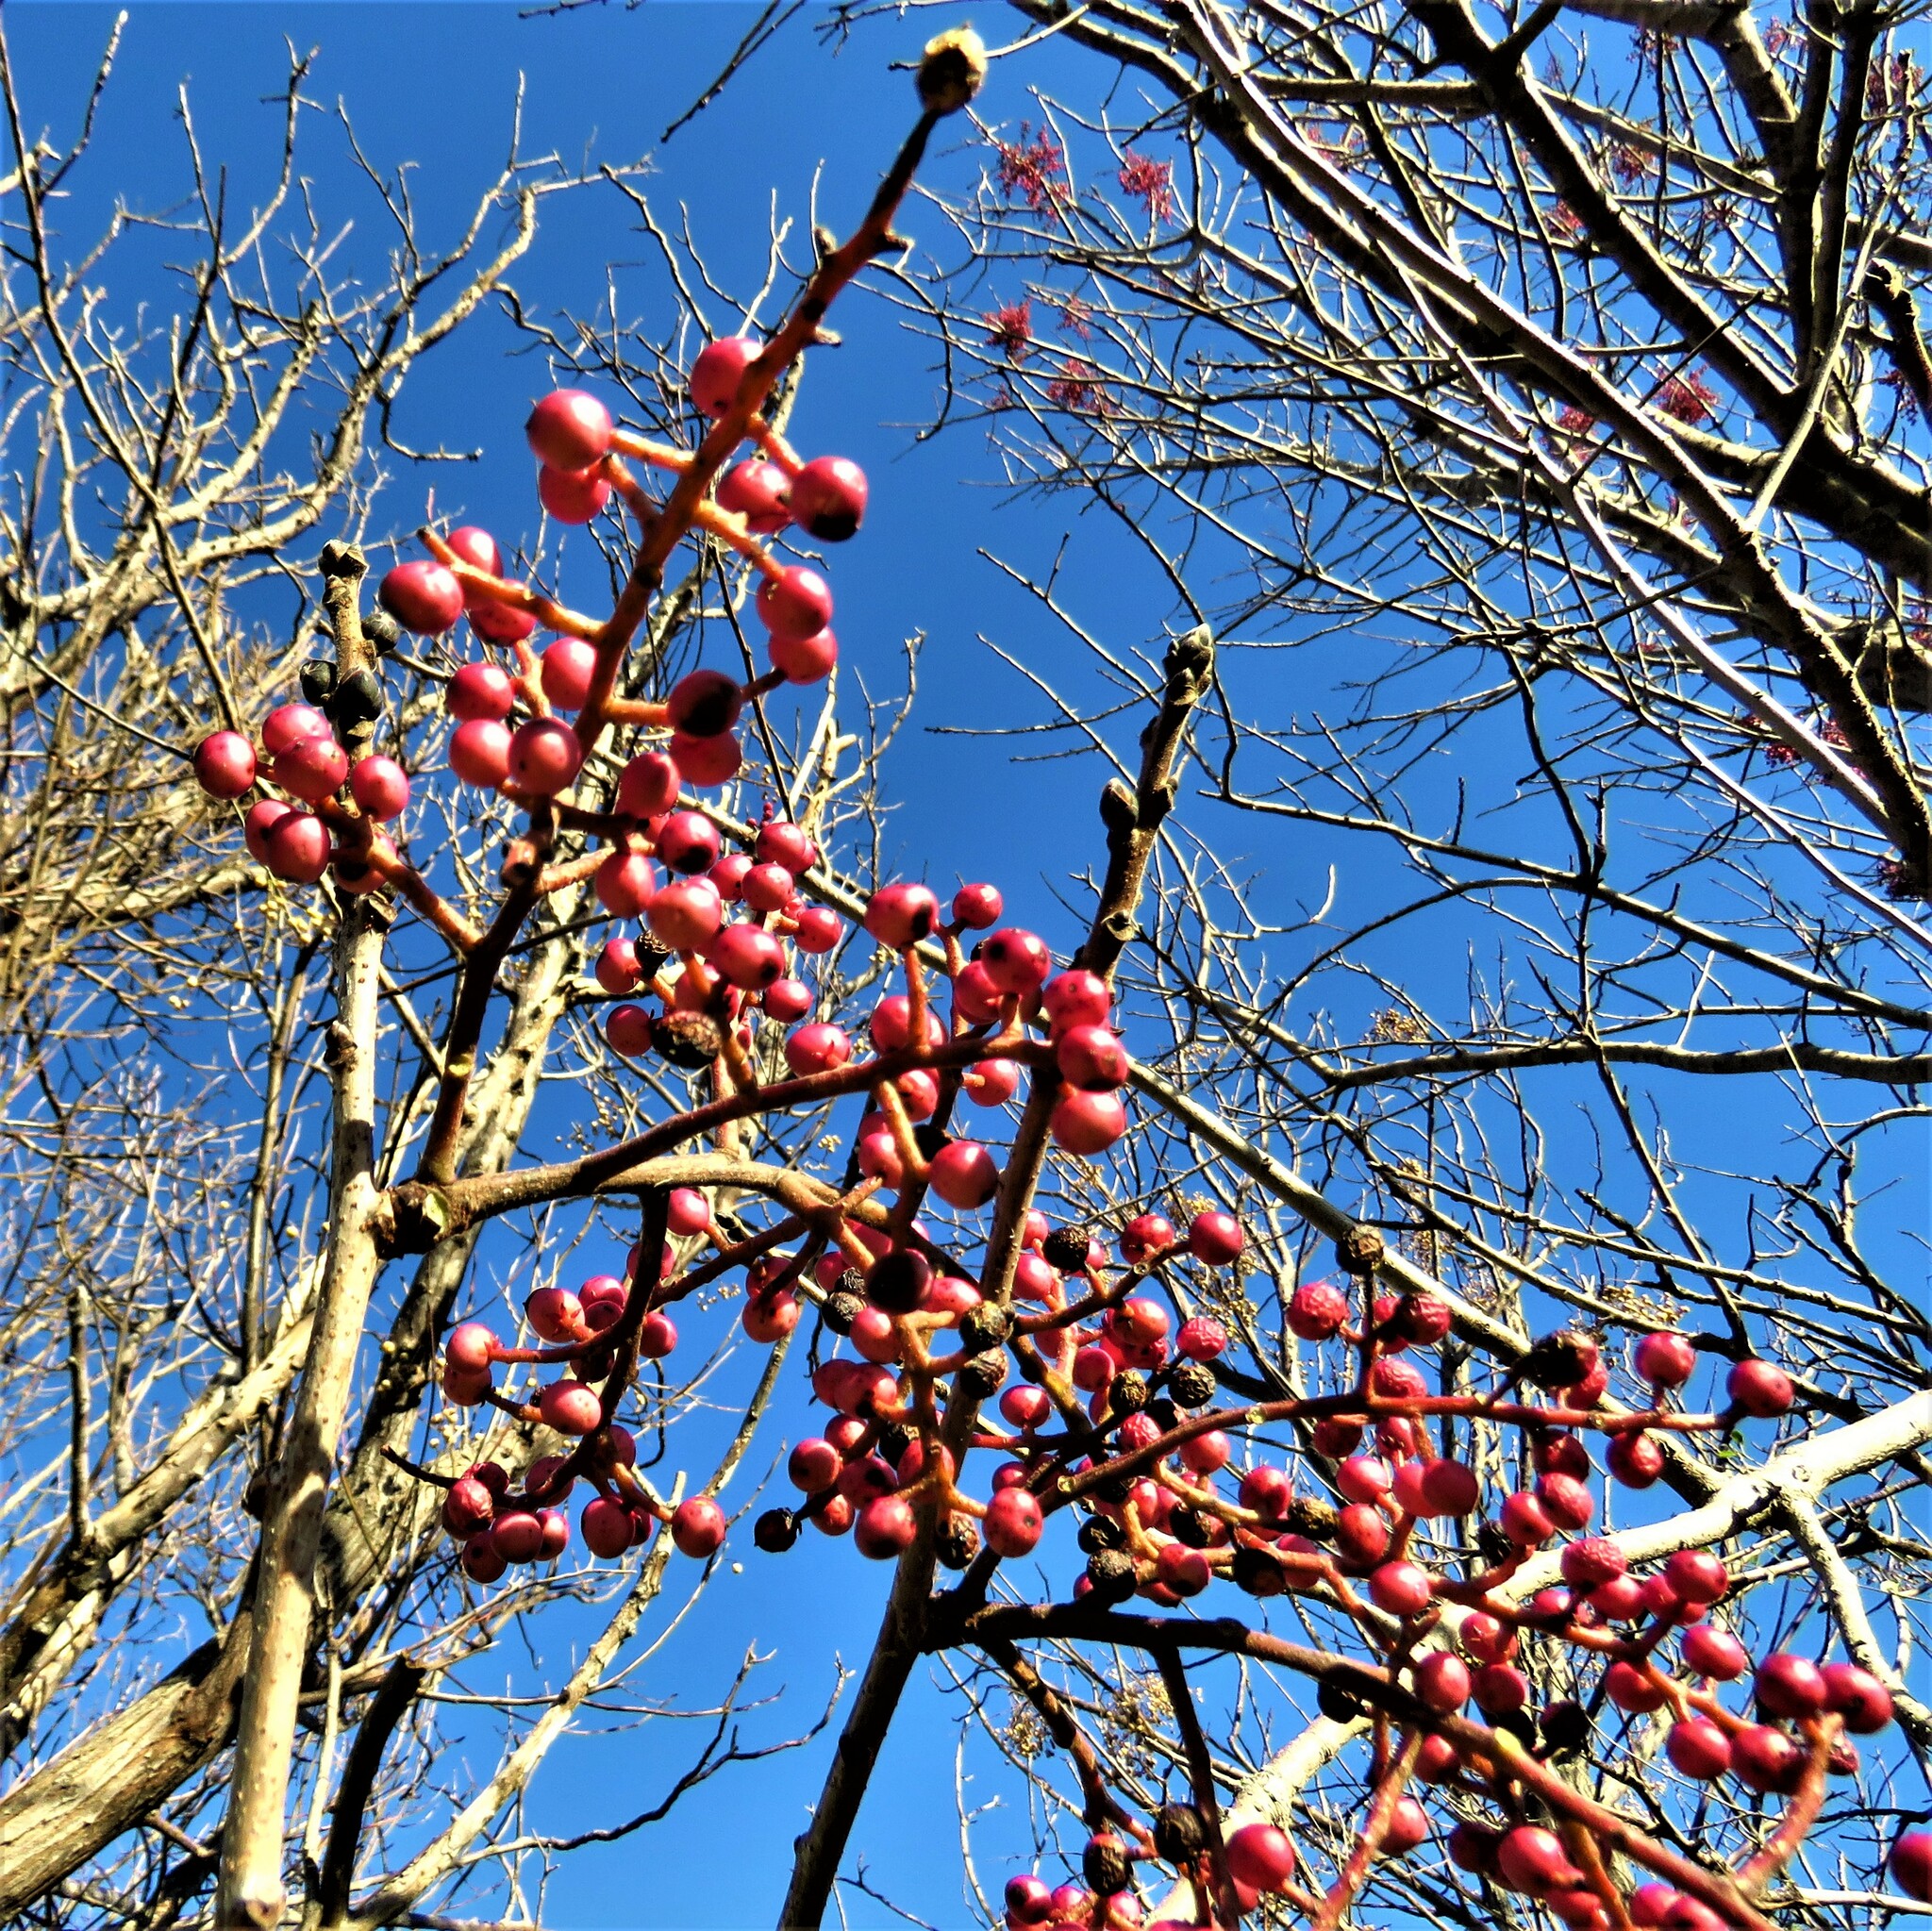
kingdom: Plantae
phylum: Tracheophyta
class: Magnoliopsida
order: Sapindales
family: Anacardiaceae
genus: Pistacia
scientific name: Pistacia chinensis
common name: Chinese pistache
